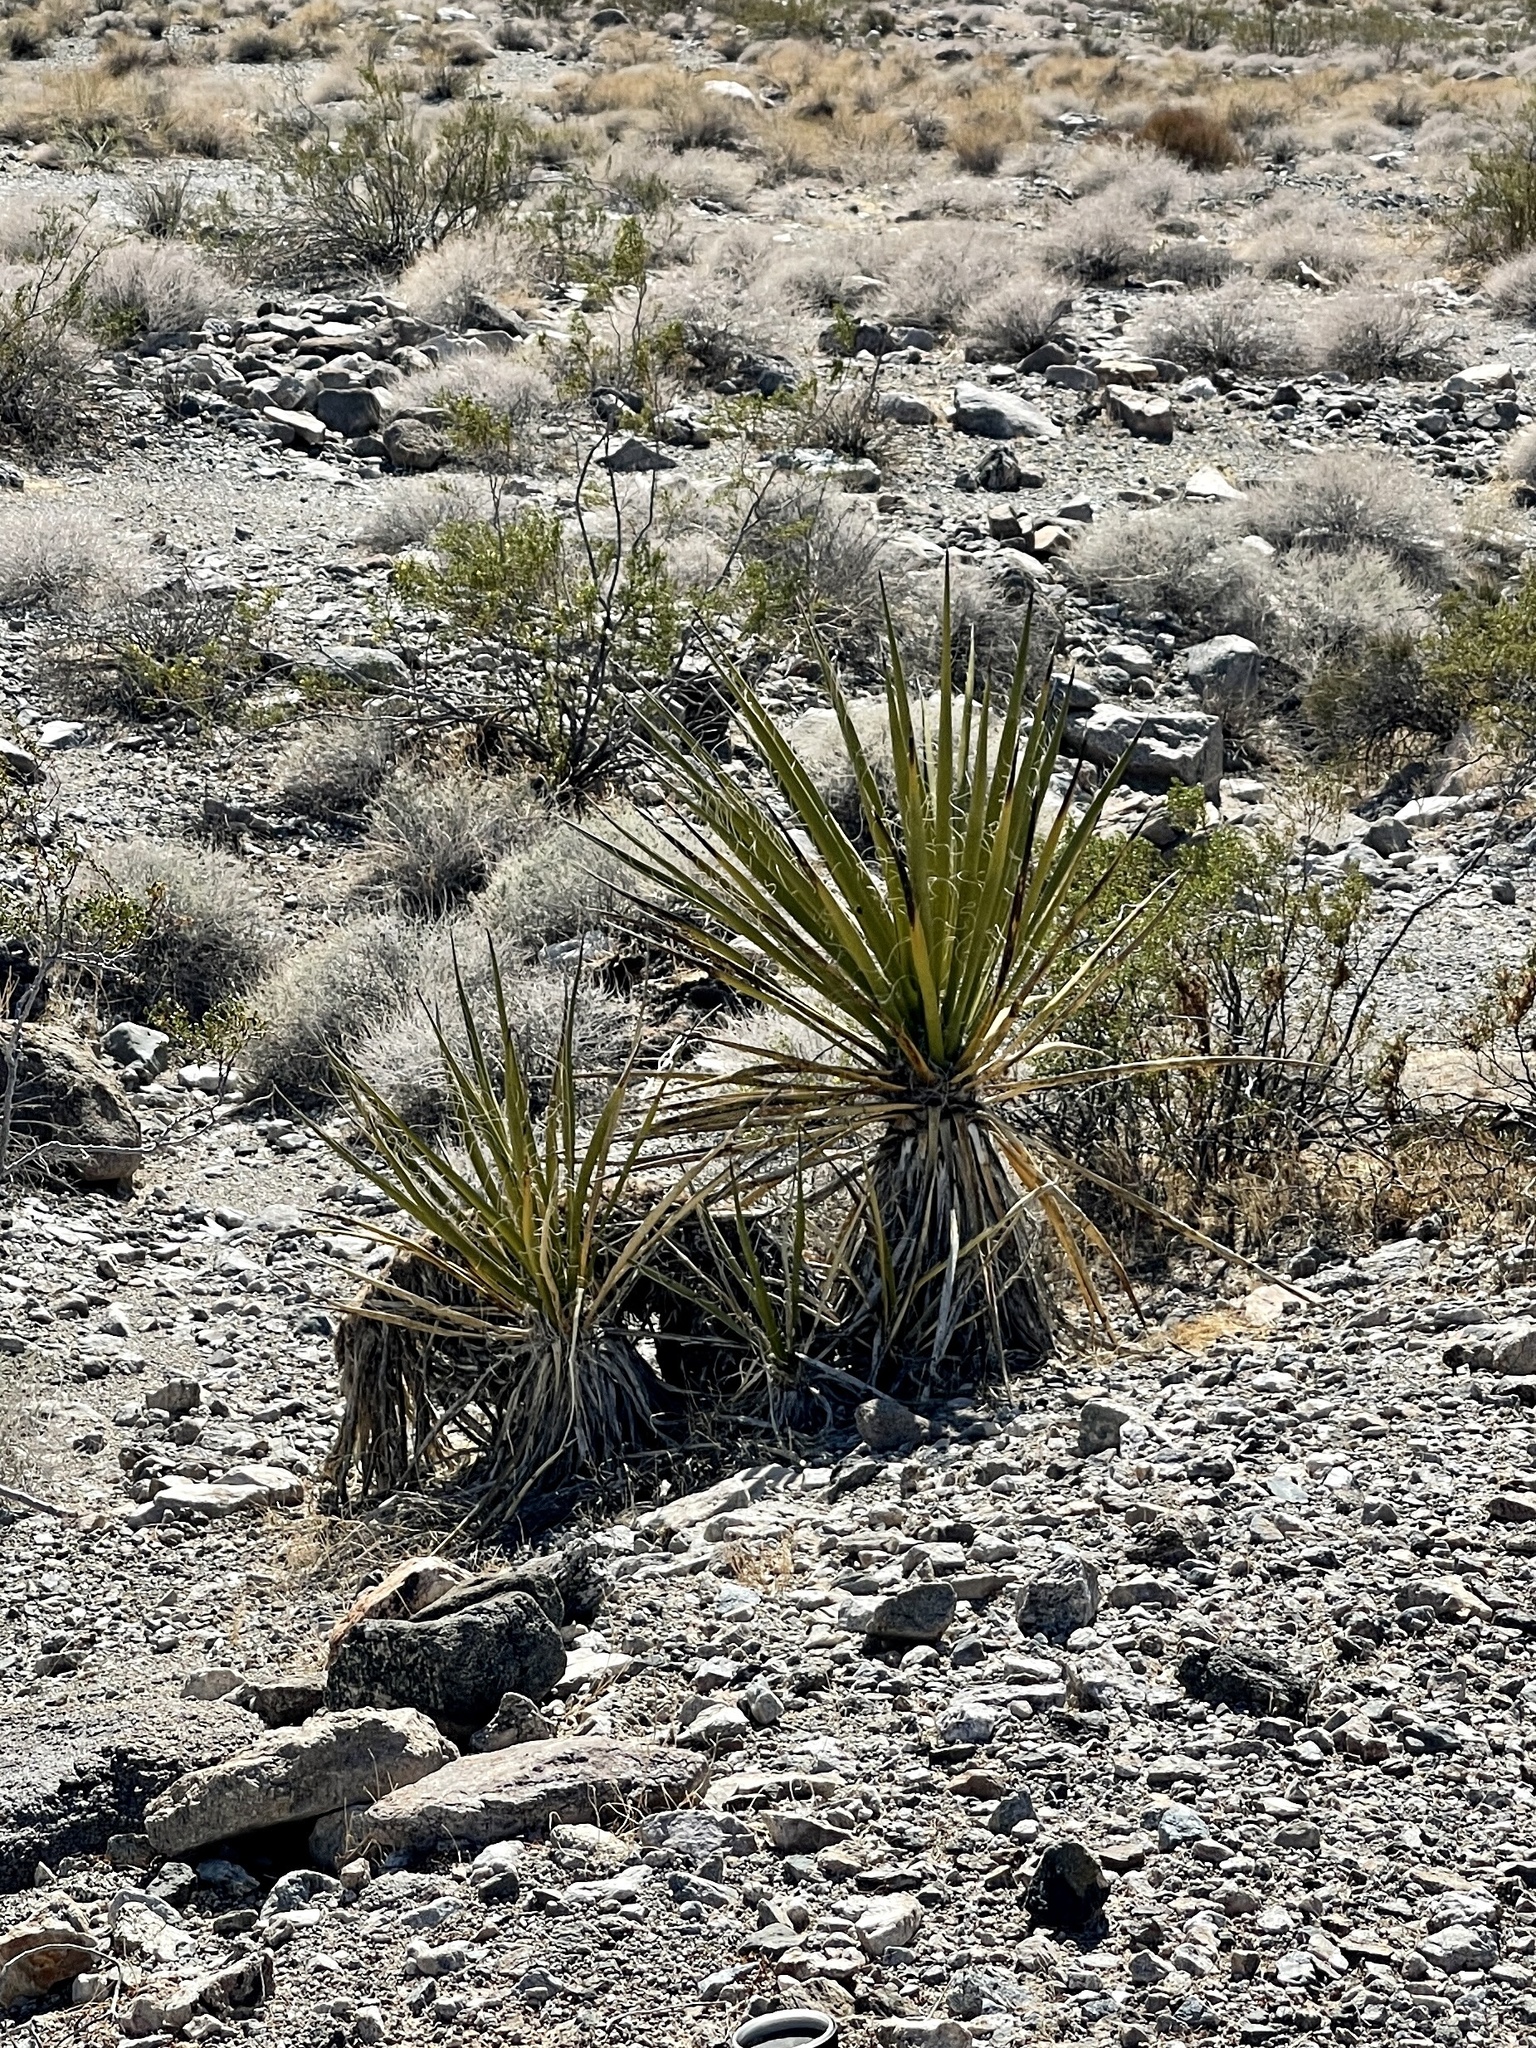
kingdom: Plantae
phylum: Tracheophyta
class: Liliopsida
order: Asparagales
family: Asparagaceae
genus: Yucca
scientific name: Yucca schidigera
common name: Mojave yucca
